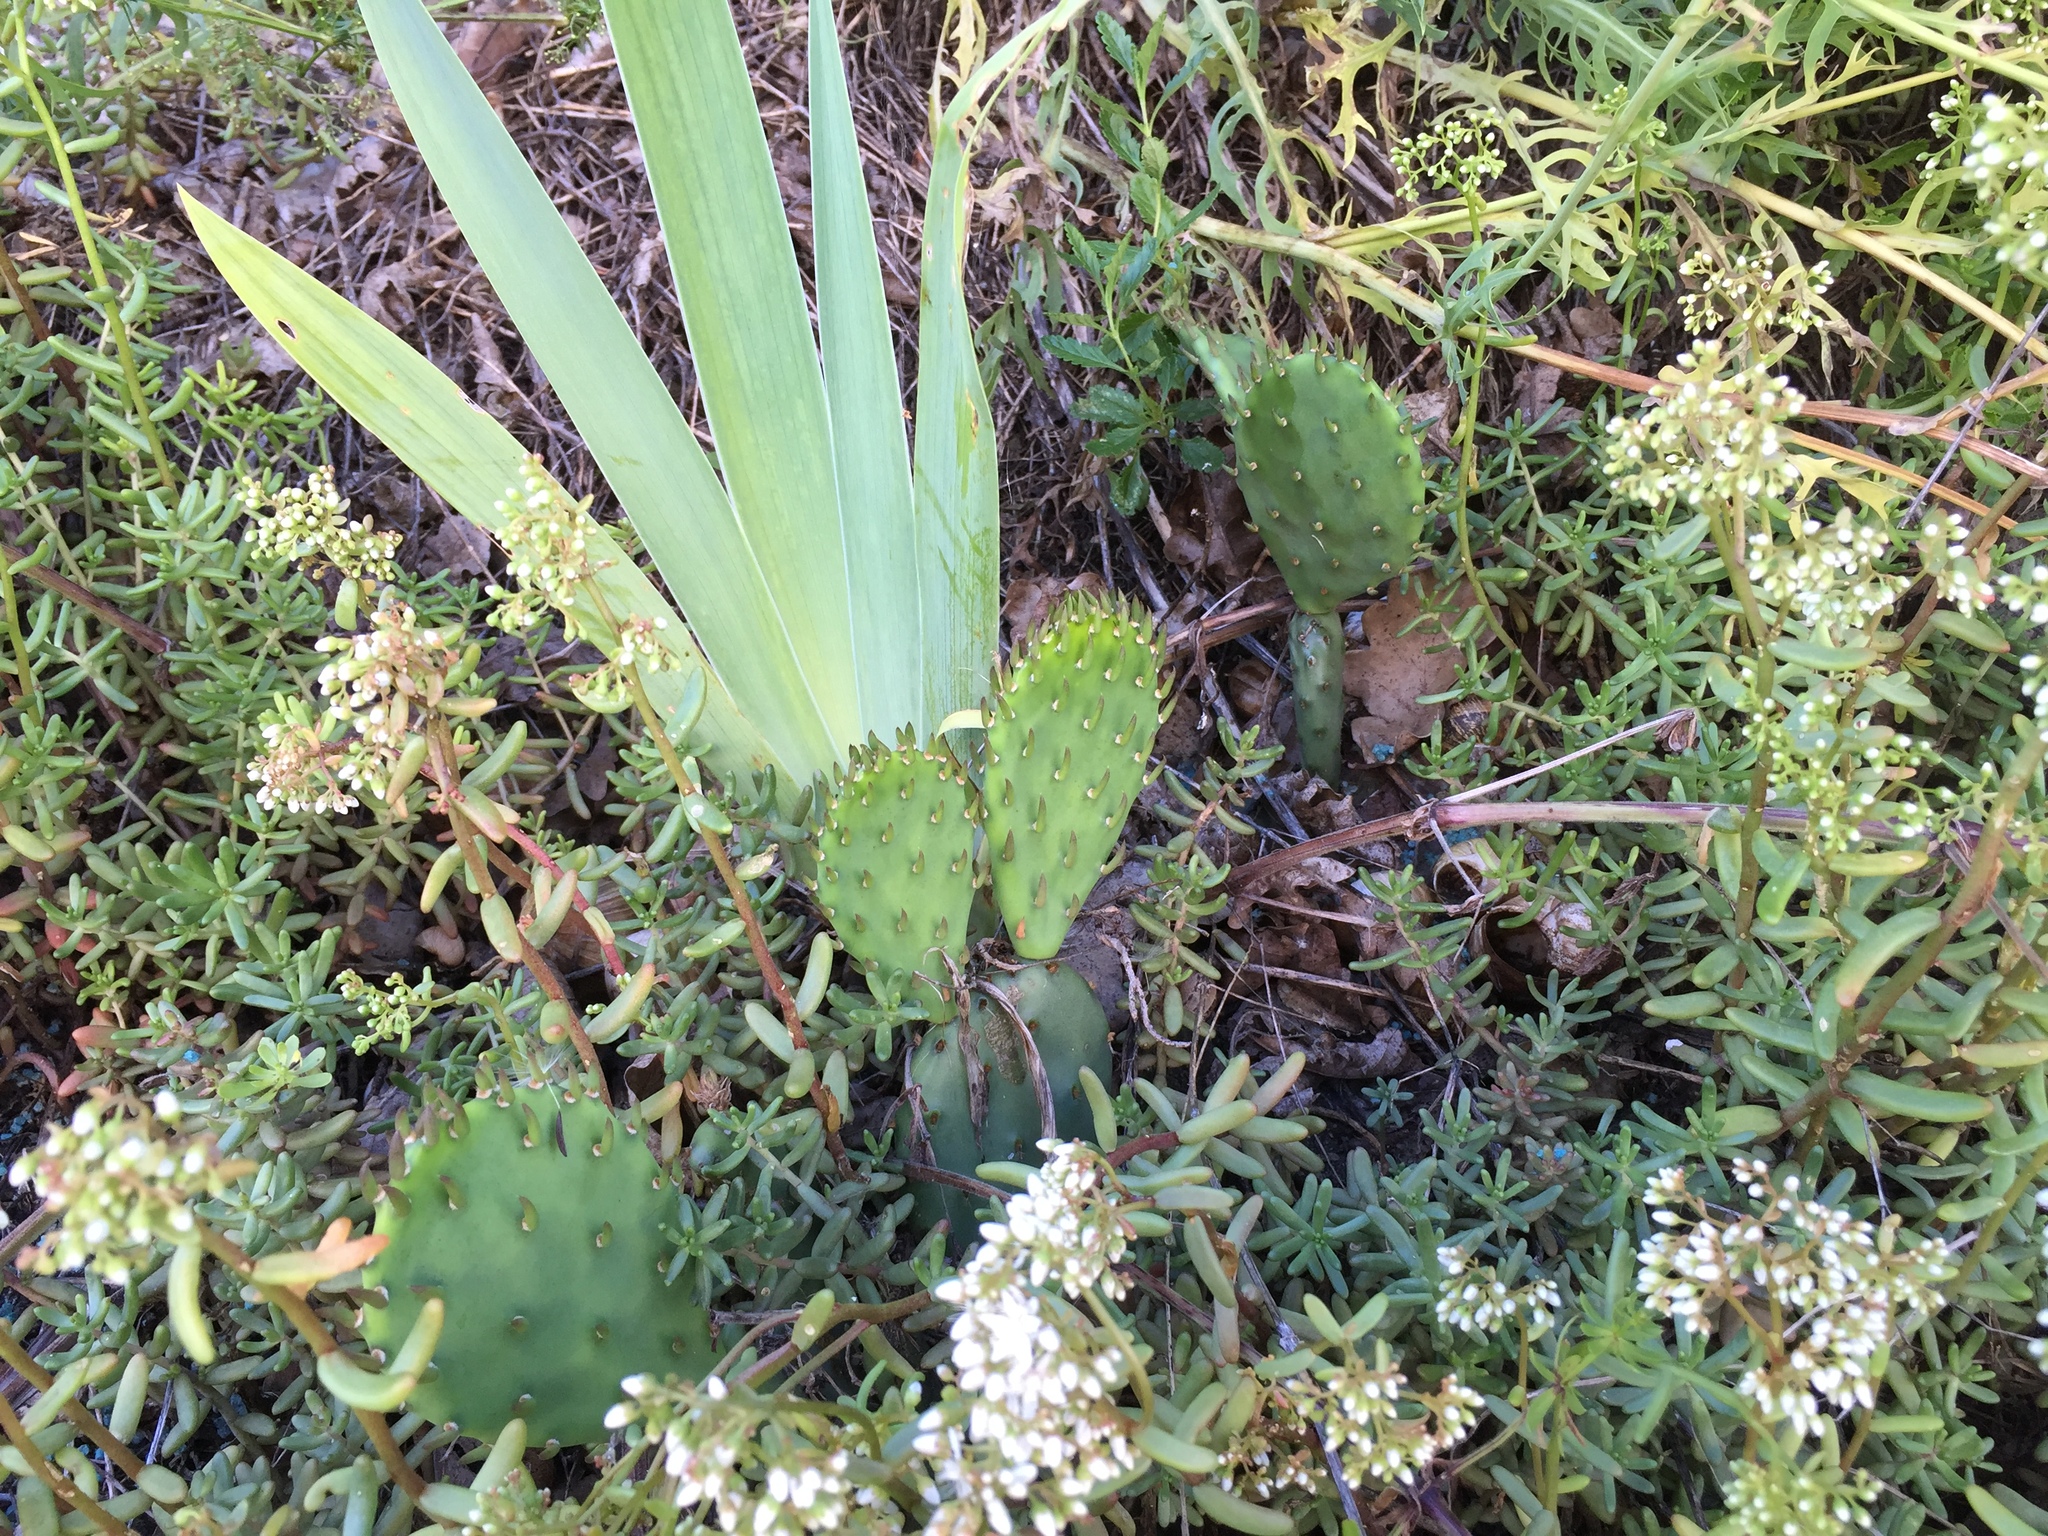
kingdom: Plantae
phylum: Tracheophyta
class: Magnoliopsida
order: Caryophyllales
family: Cactaceae
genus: Opuntia
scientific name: Opuntia humifusa
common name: Eastern prickly-pear
